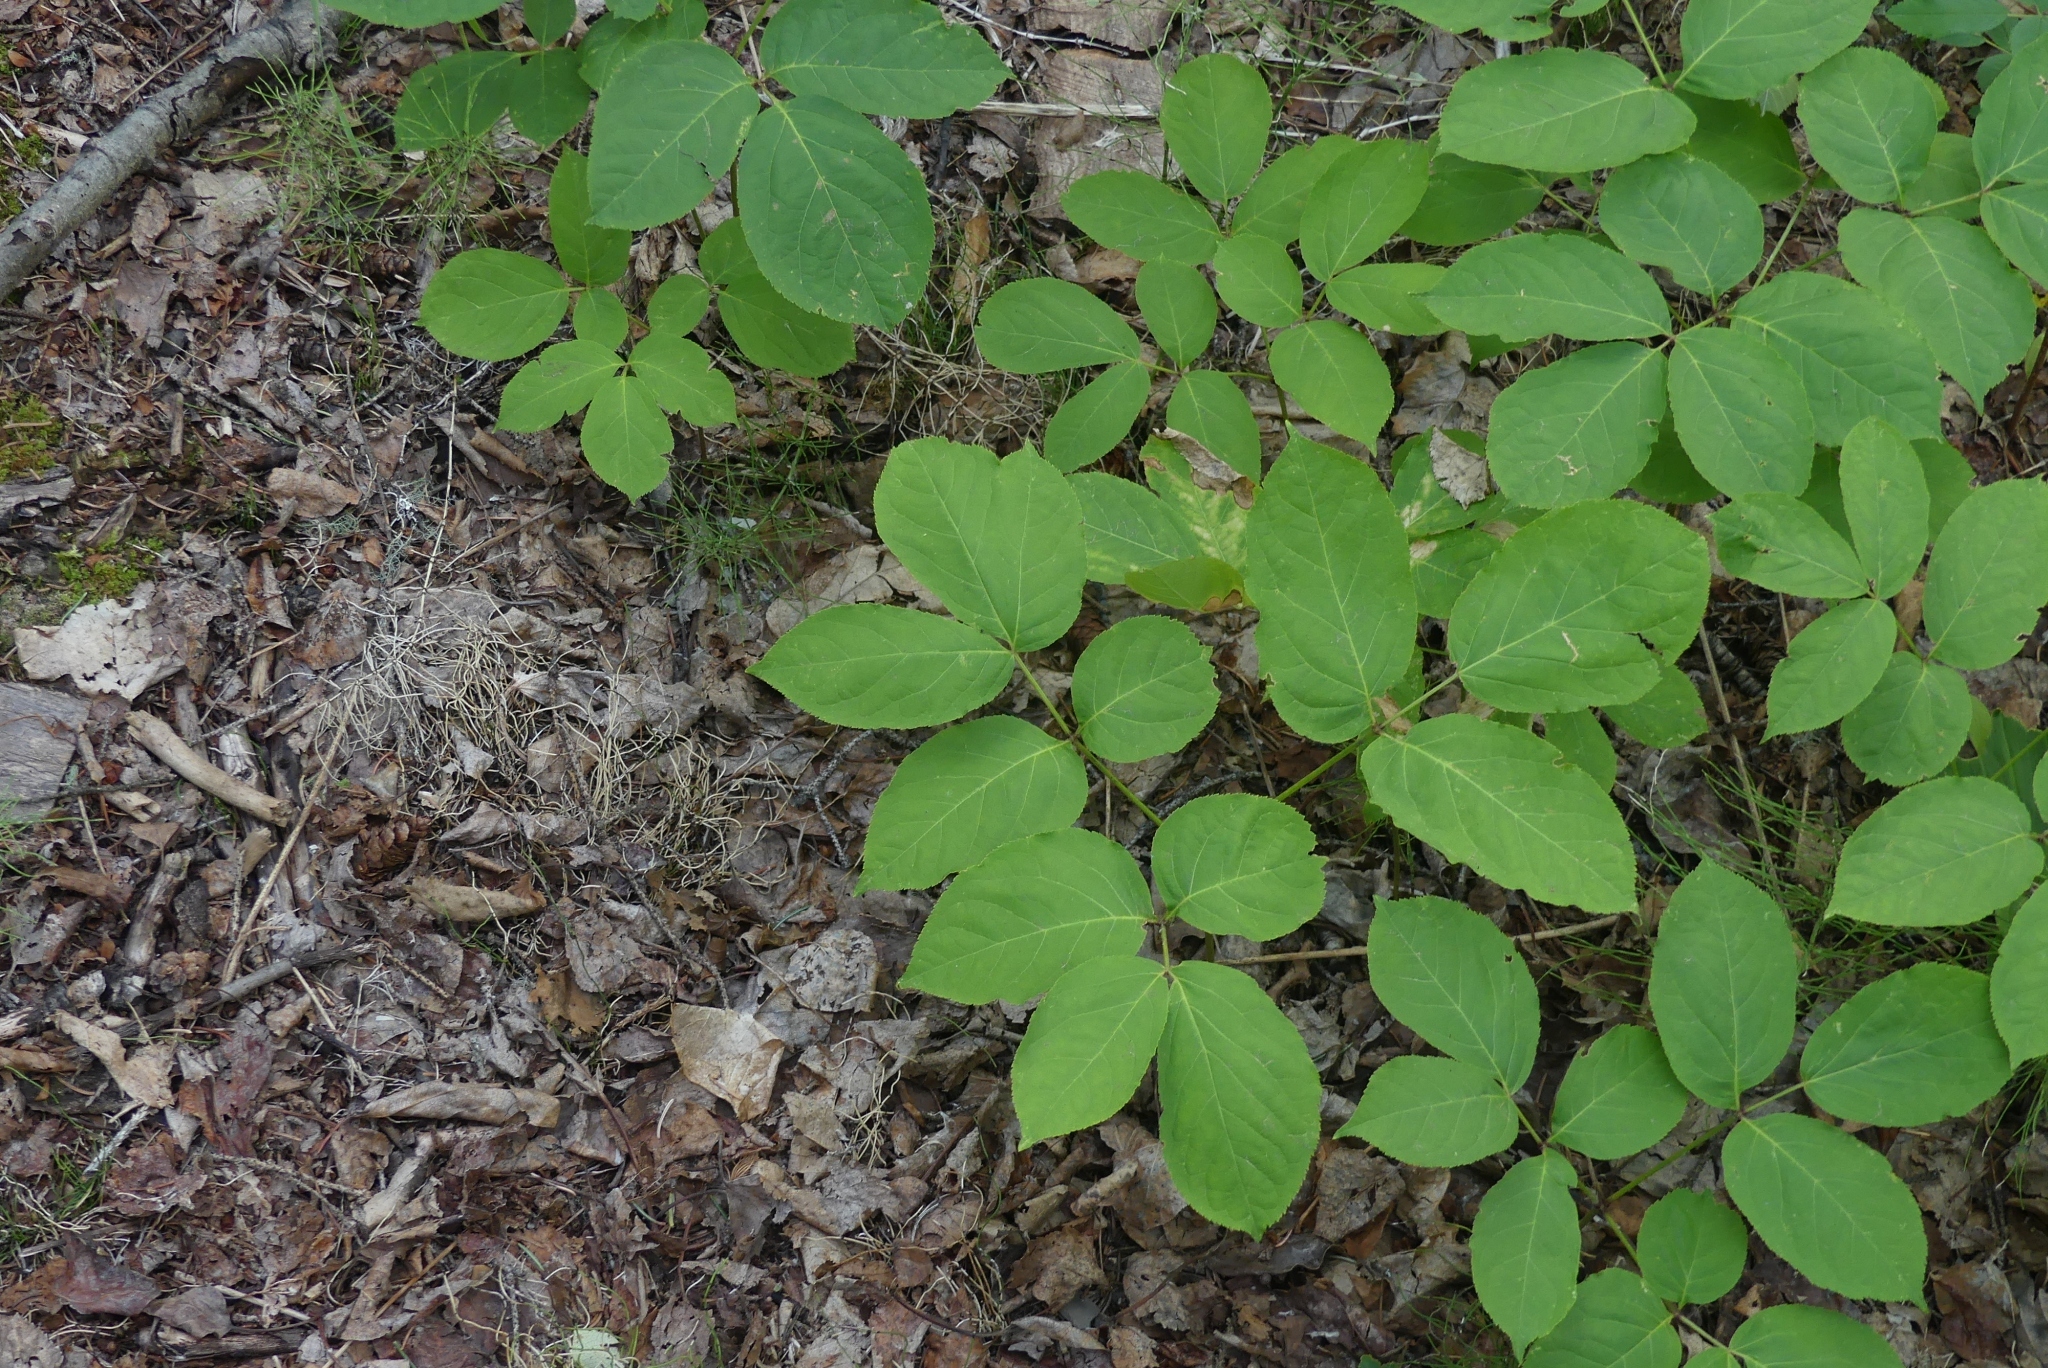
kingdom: Plantae
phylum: Tracheophyta
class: Magnoliopsida
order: Apiales
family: Araliaceae
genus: Aralia
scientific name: Aralia nudicaulis
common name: Wild sarsaparilla
